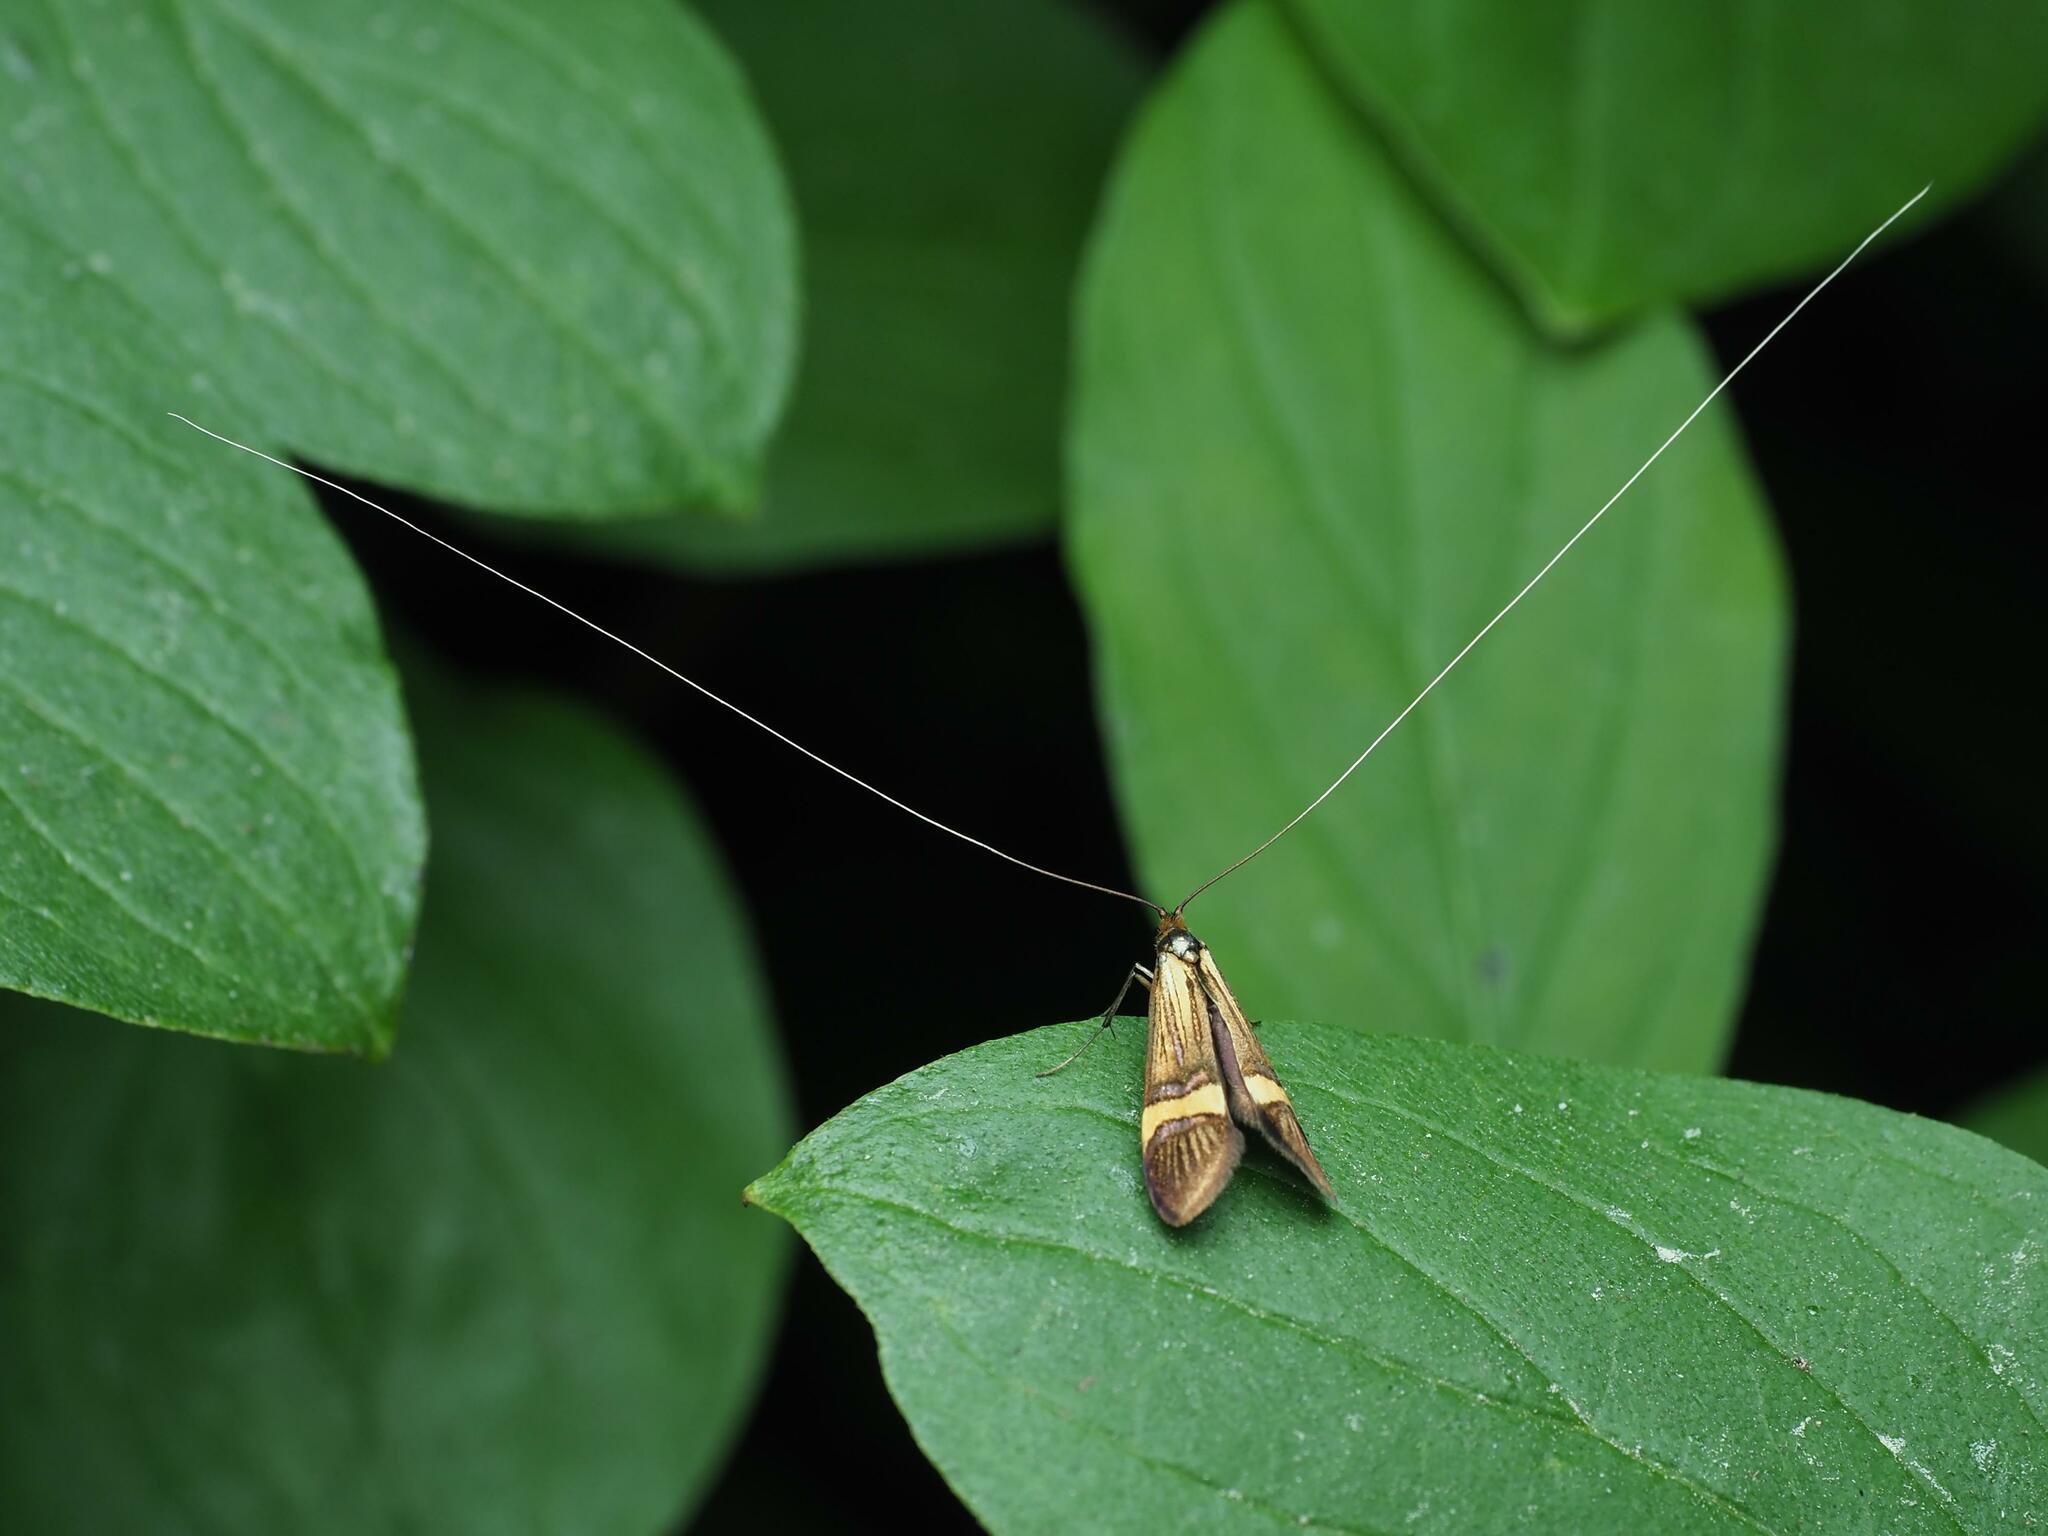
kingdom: Animalia
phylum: Arthropoda
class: Insecta
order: Lepidoptera
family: Adelidae
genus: Nemophora
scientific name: Nemophora degeerella
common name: Yellow-barred long-horn
